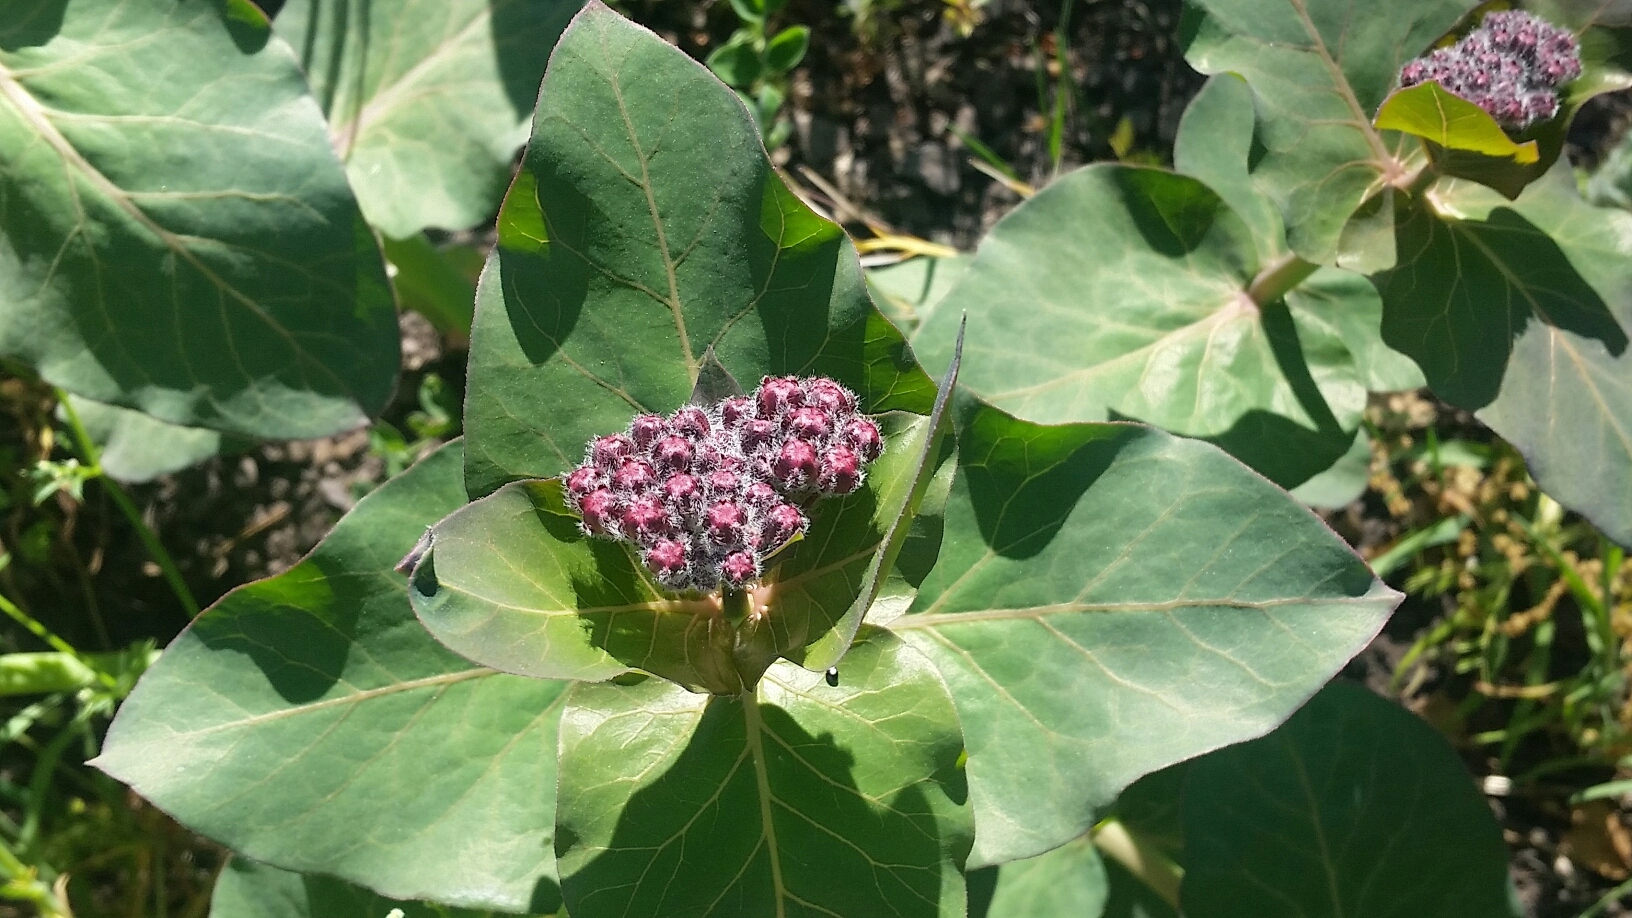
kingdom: Plantae
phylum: Tracheophyta
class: Magnoliopsida
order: Gentianales
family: Apocynaceae
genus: Asclepias
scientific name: Asclepias cordifolia
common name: Purple milkweed
